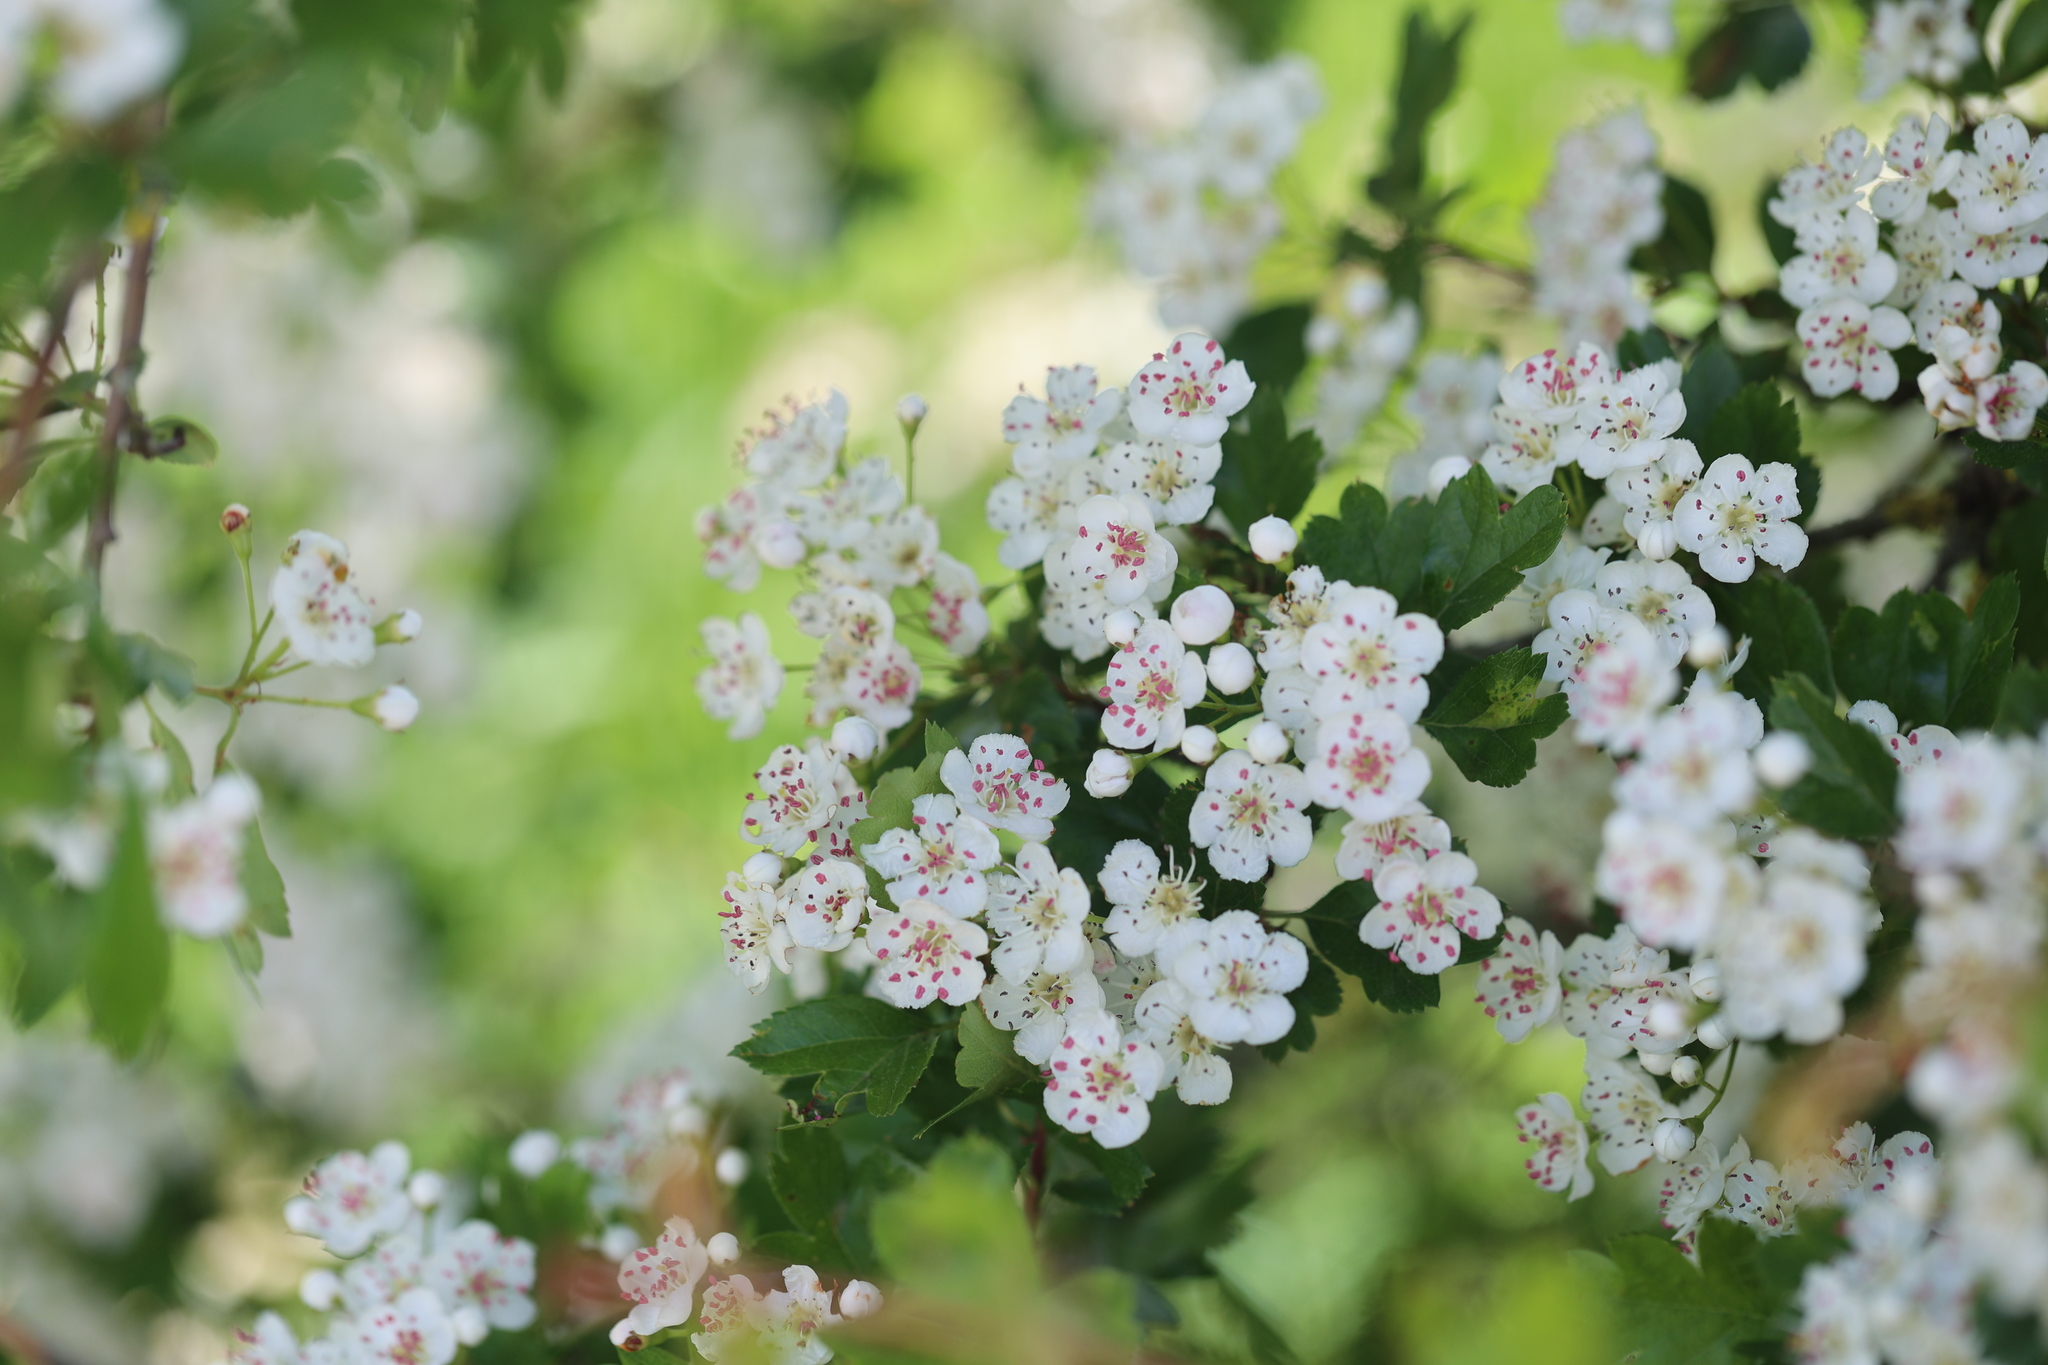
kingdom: Plantae
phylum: Tracheophyta
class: Magnoliopsida
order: Rosales
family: Rosaceae
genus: Crataegus
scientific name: Crataegus monogyna
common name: Hawthorn
